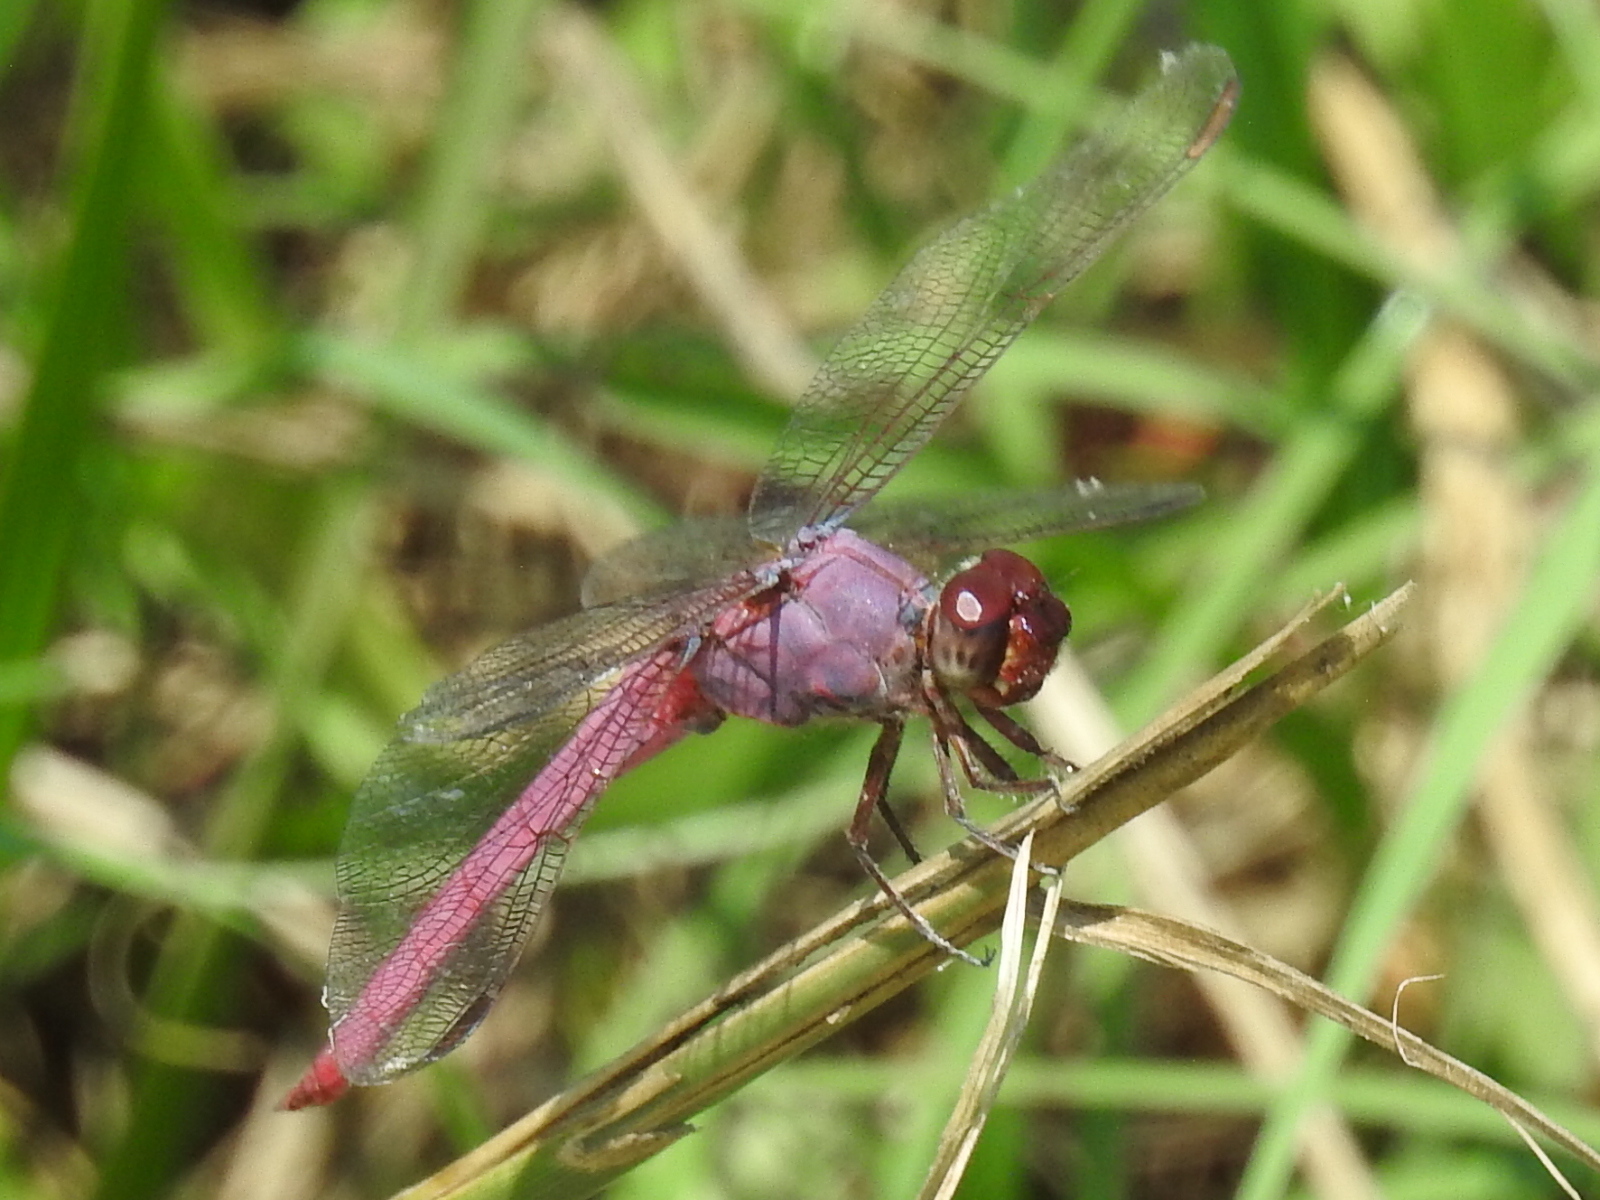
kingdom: Animalia
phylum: Arthropoda
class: Insecta
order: Odonata
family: Libellulidae
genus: Orthemis
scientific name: Orthemis ferruginea
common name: Roseate skimmer
